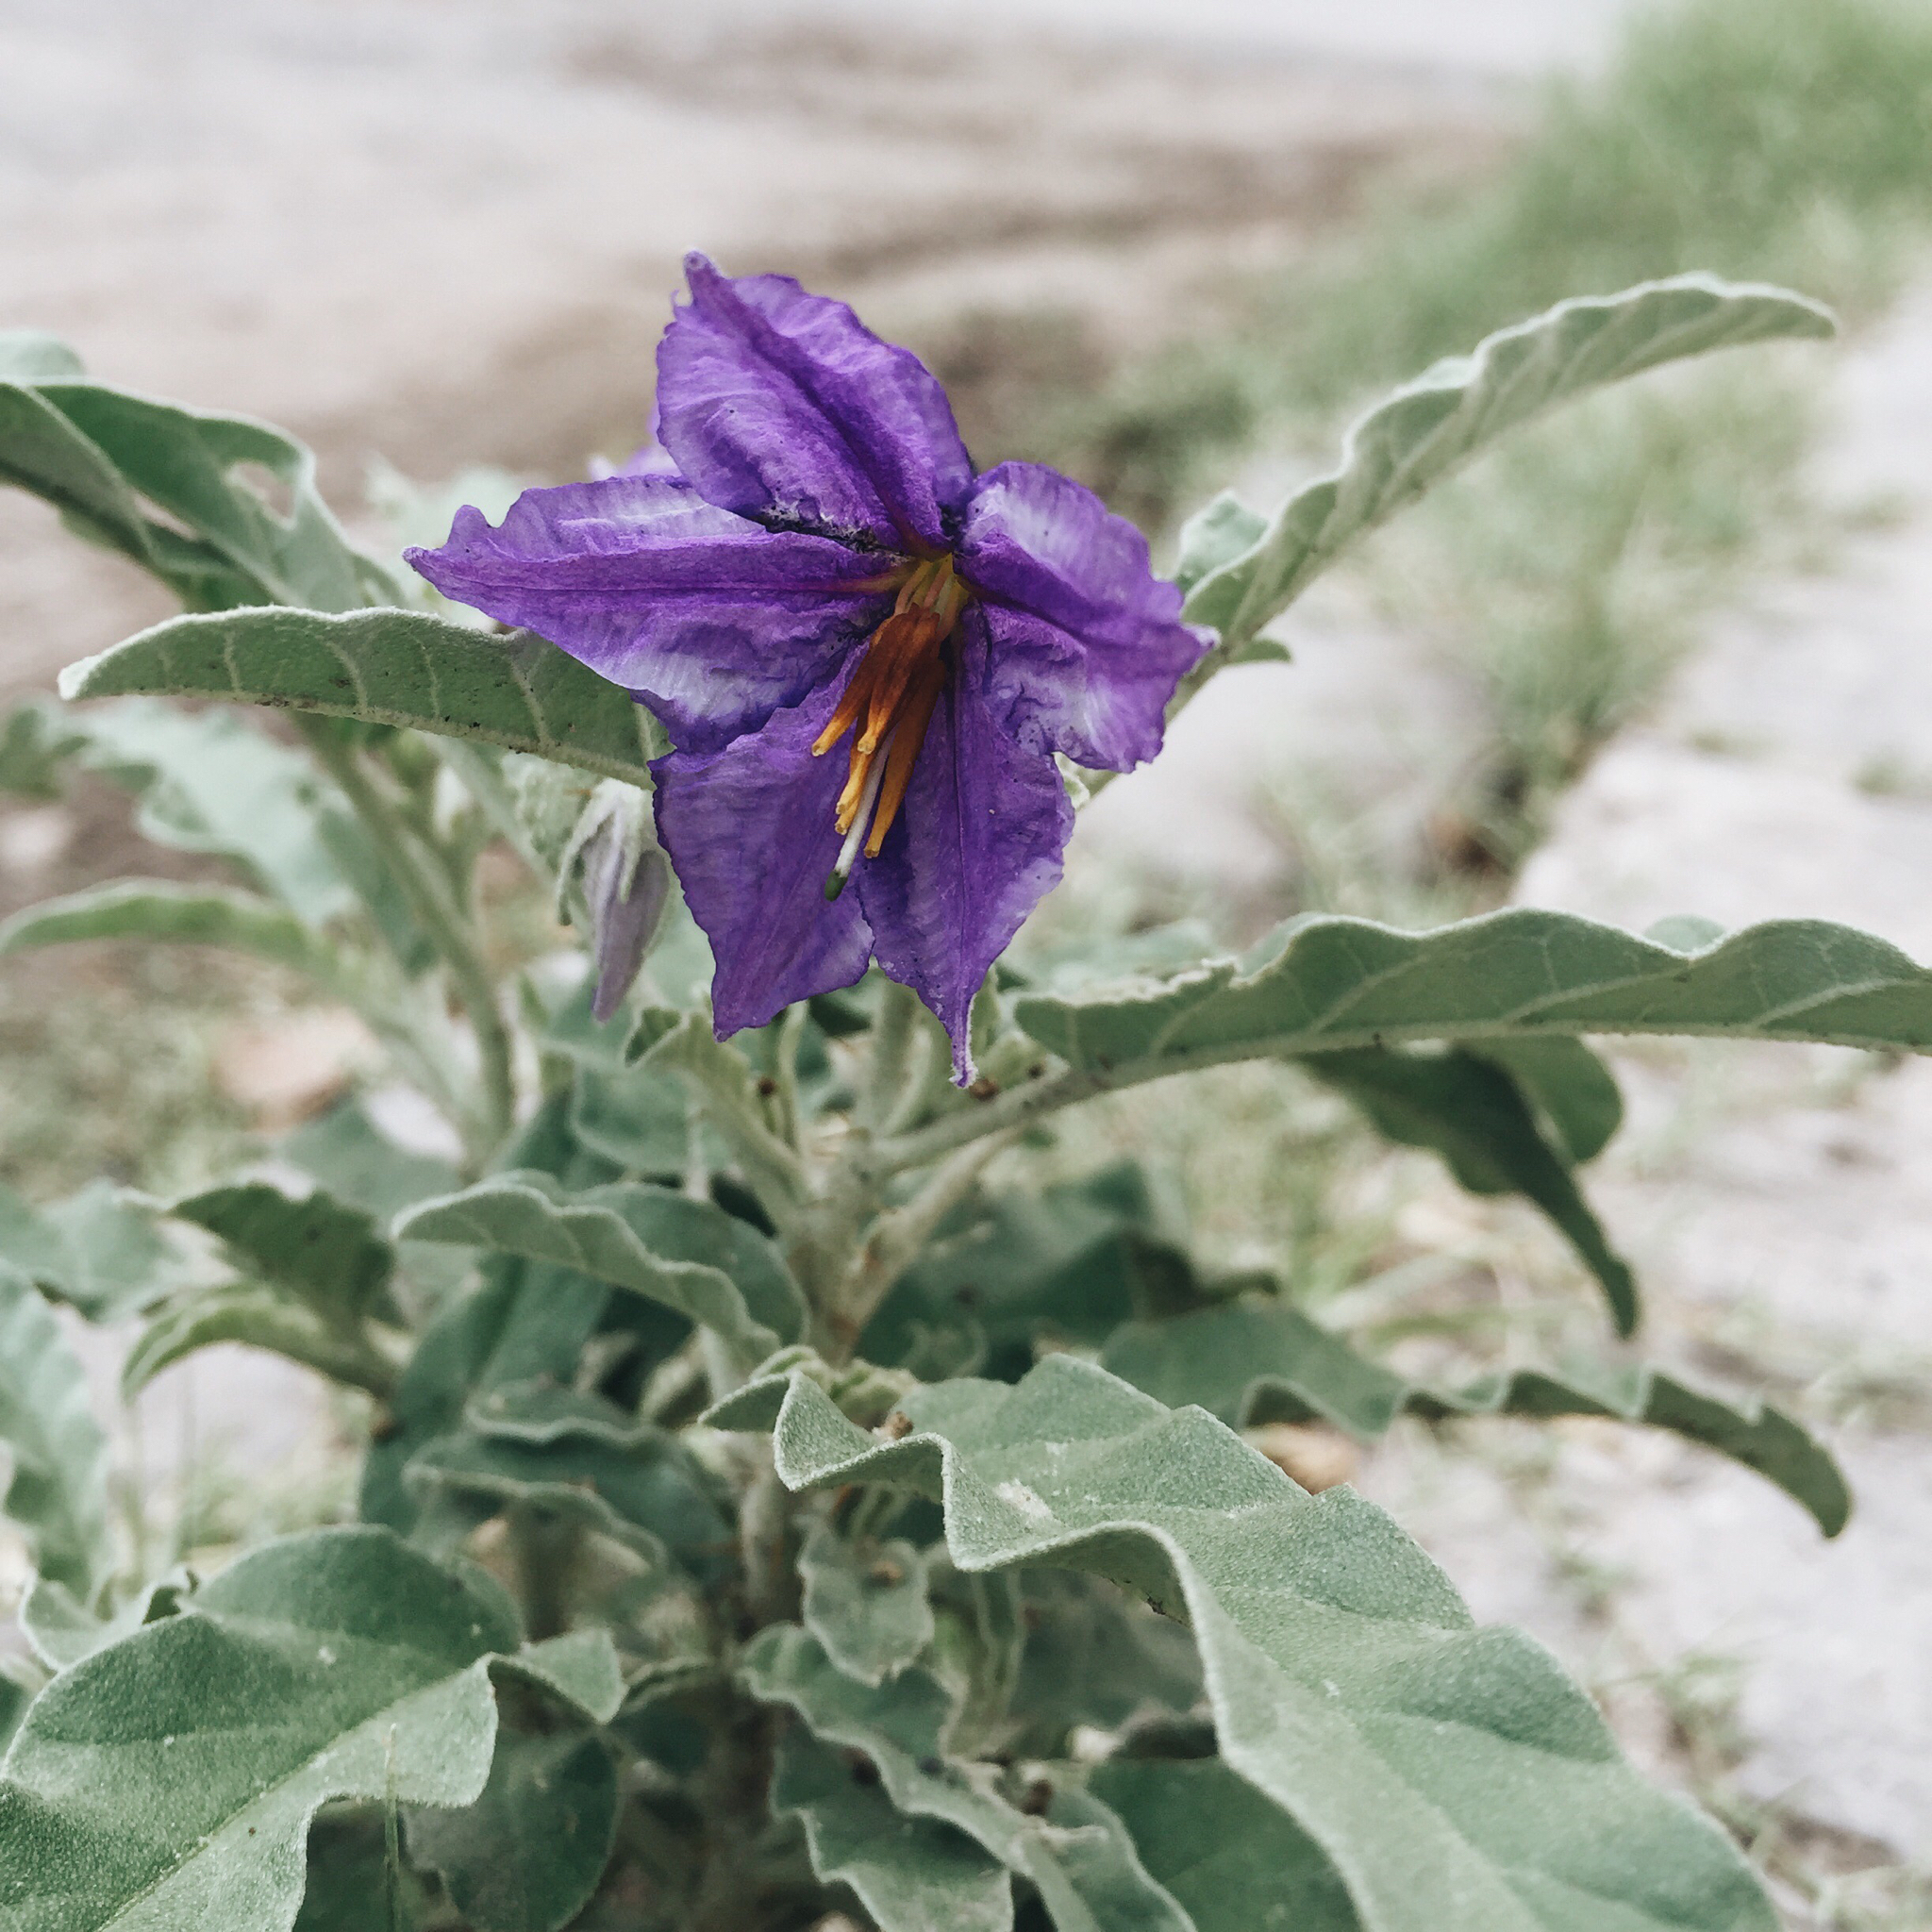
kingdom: Plantae
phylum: Tracheophyta
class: Magnoliopsida
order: Solanales
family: Solanaceae
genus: Solanum
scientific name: Solanum elaeagnifolium
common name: Silverleaf nightshade
